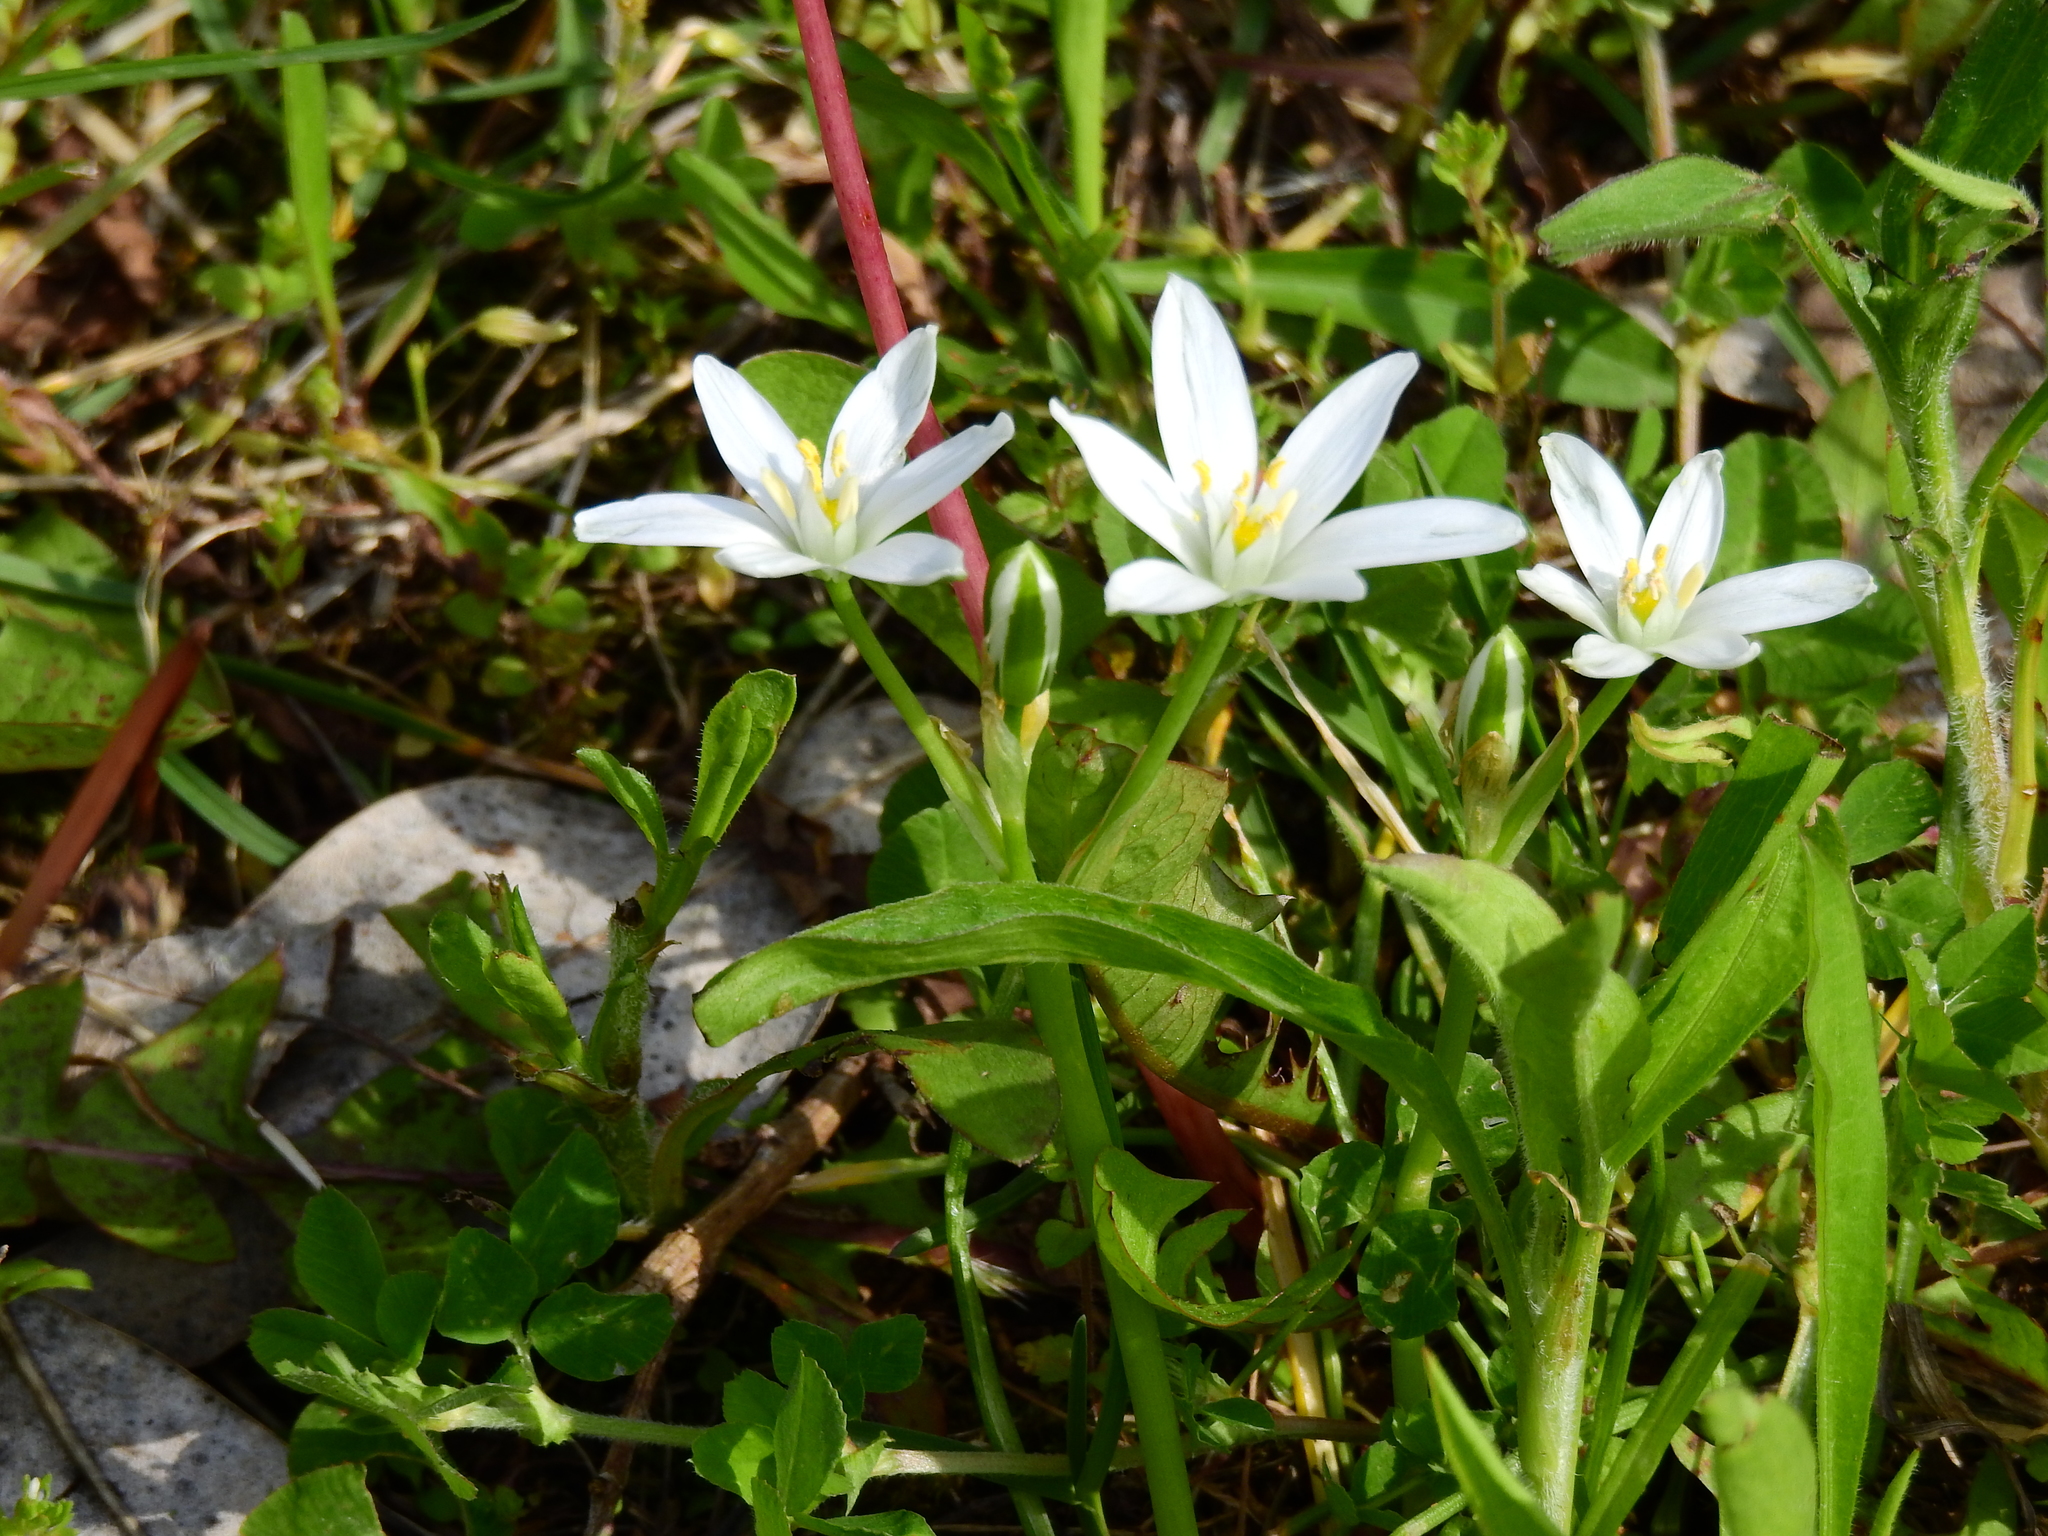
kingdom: Plantae
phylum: Tracheophyta
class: Liliopsida
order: Asparagales
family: Asparagaceae
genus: Ornithogalum
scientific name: Ornithogalum umbellatum
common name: Garden star-of-bethlehem
